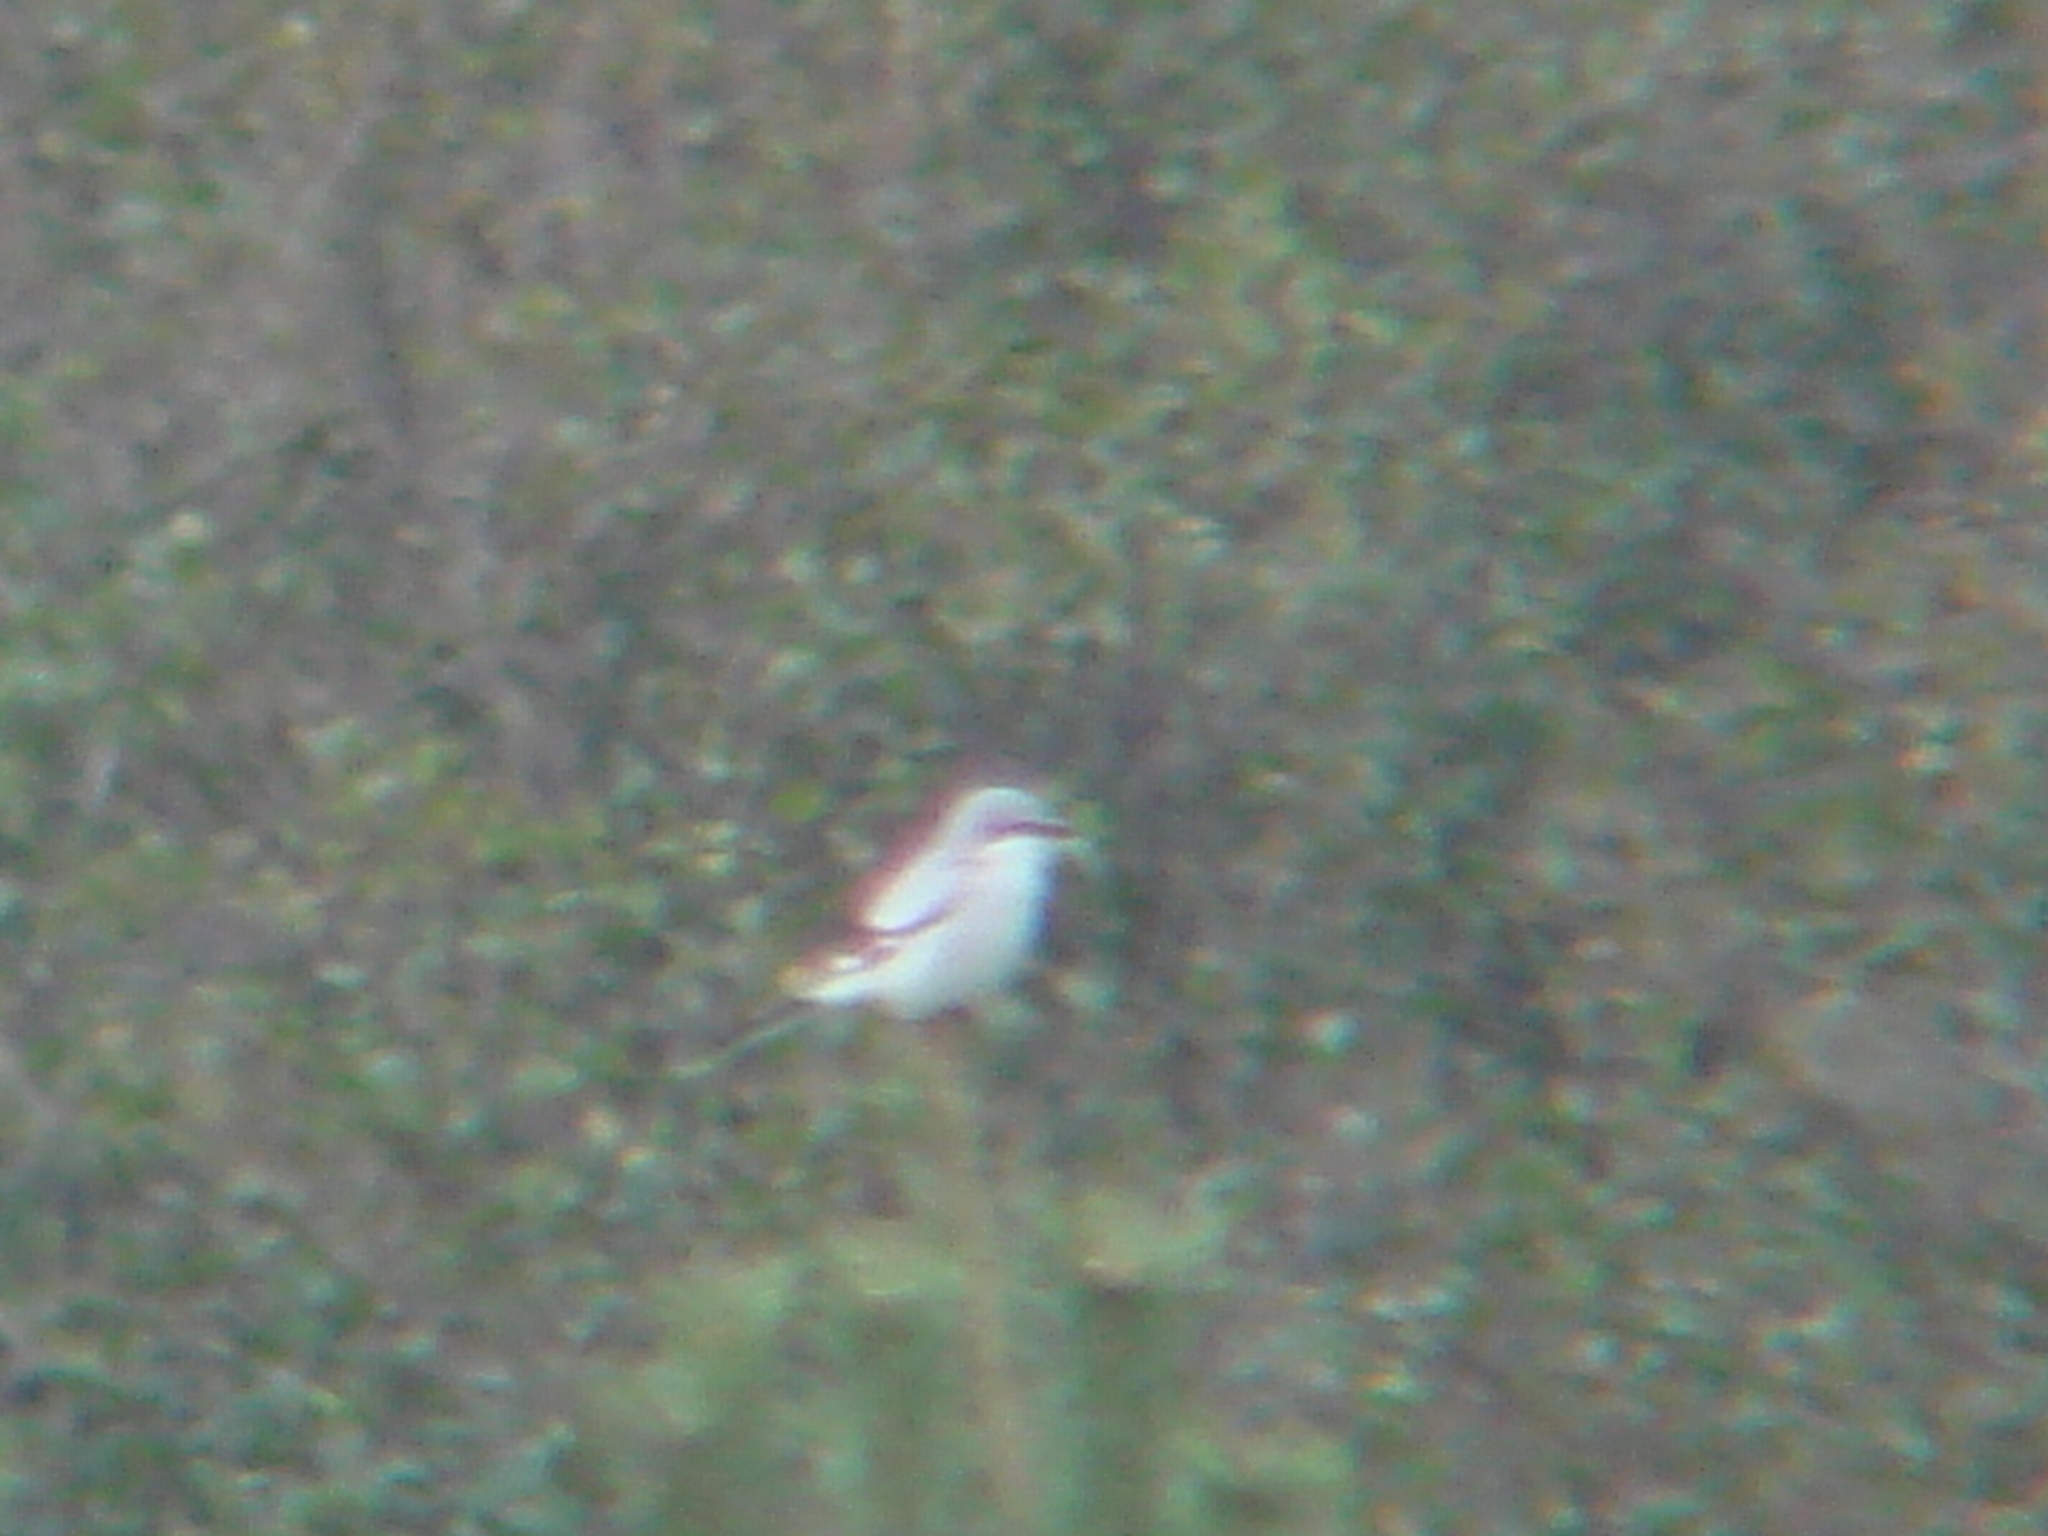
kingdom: Animalia
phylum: Chordata
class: Aves
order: Passeriformes
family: Laniidae
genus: Lanius
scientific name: Lanius excubitor
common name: Great grey shrike
